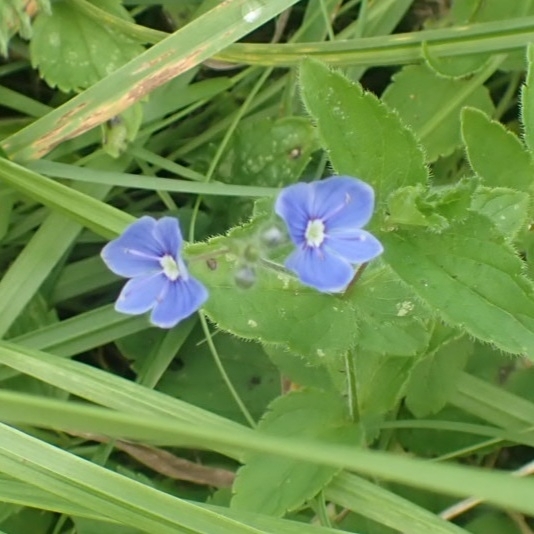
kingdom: Plantae
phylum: Tracheophyta
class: Magnoliopsida
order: Lamiales
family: Plantaginaceae
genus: Veronica
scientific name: Veronica chamaedrys
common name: Germander speedwell
